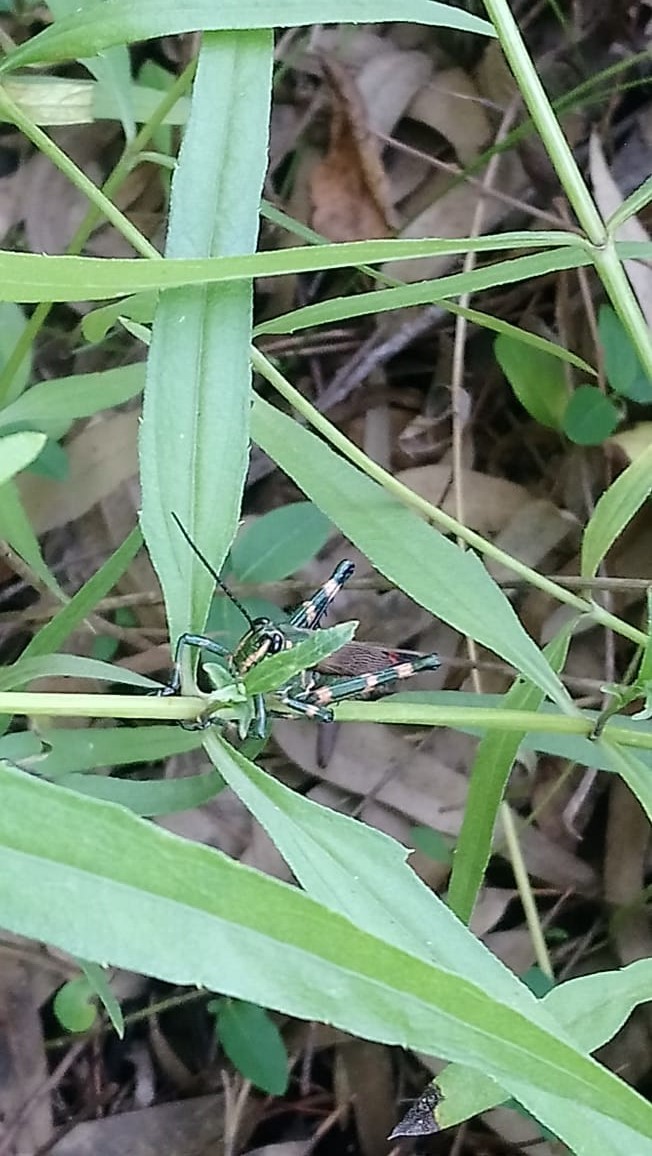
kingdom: Animalia
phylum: Arthropoda
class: Insecta
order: Orthoptera
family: Romaleidae
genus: Chromacris
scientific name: Chromacris speciosa
